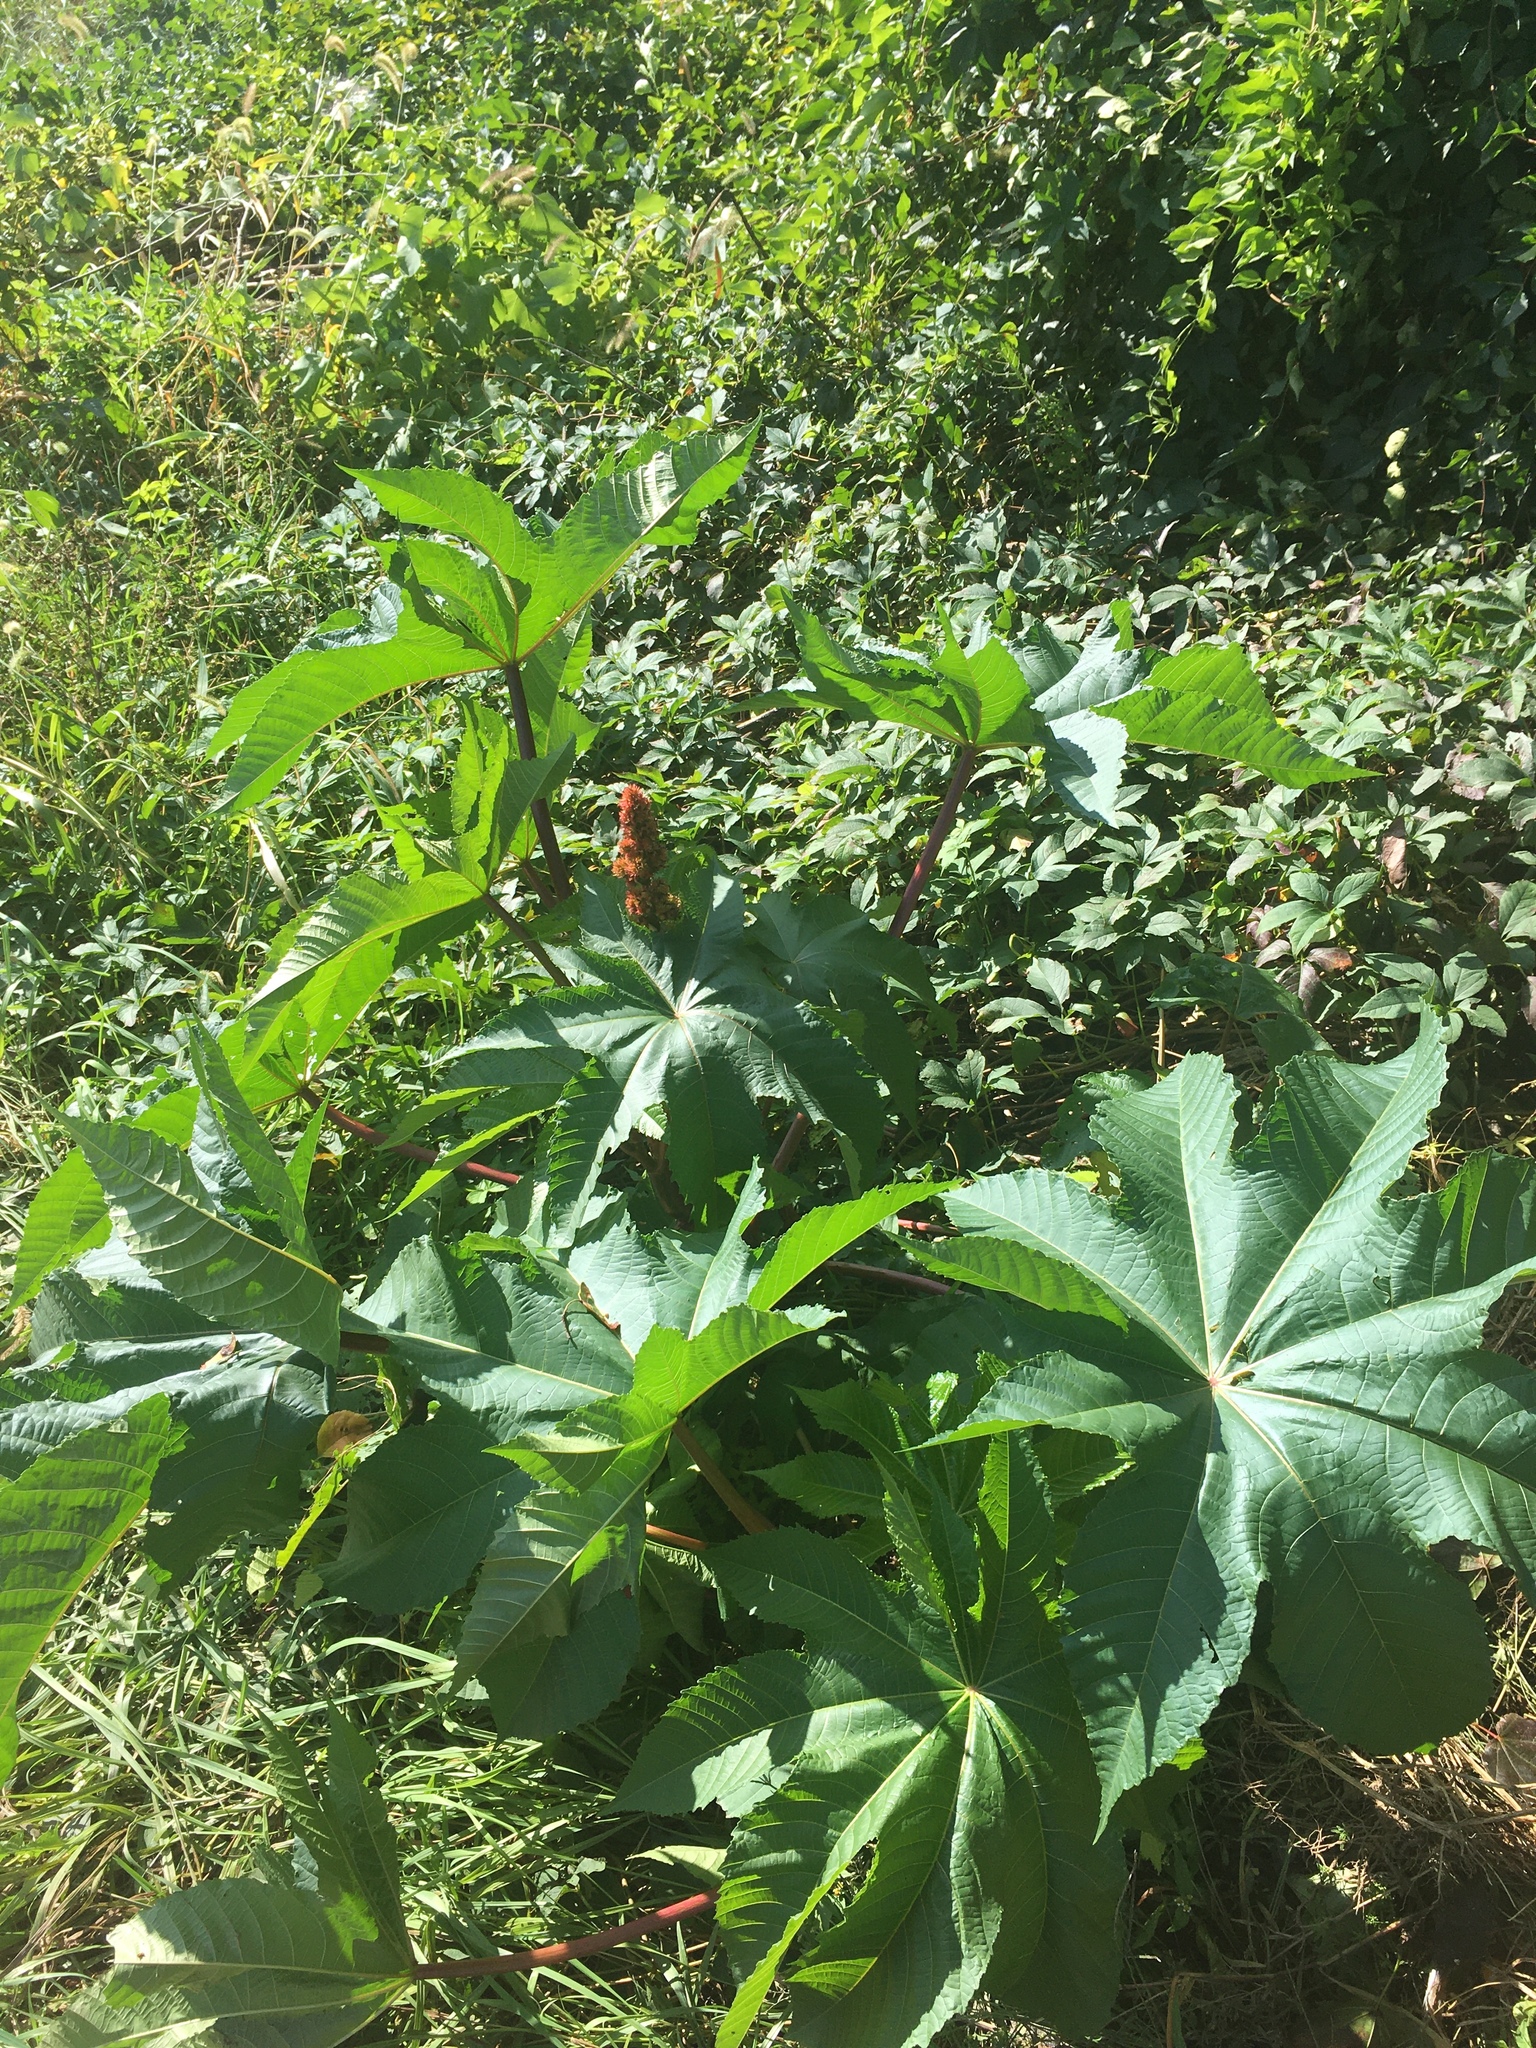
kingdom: Plantae
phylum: Tracheophyta
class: Magnoliopsida
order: Malpighiales
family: Euphorbiaceae
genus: Ricinus
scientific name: Ricinus communis
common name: Castor-oil-plant
